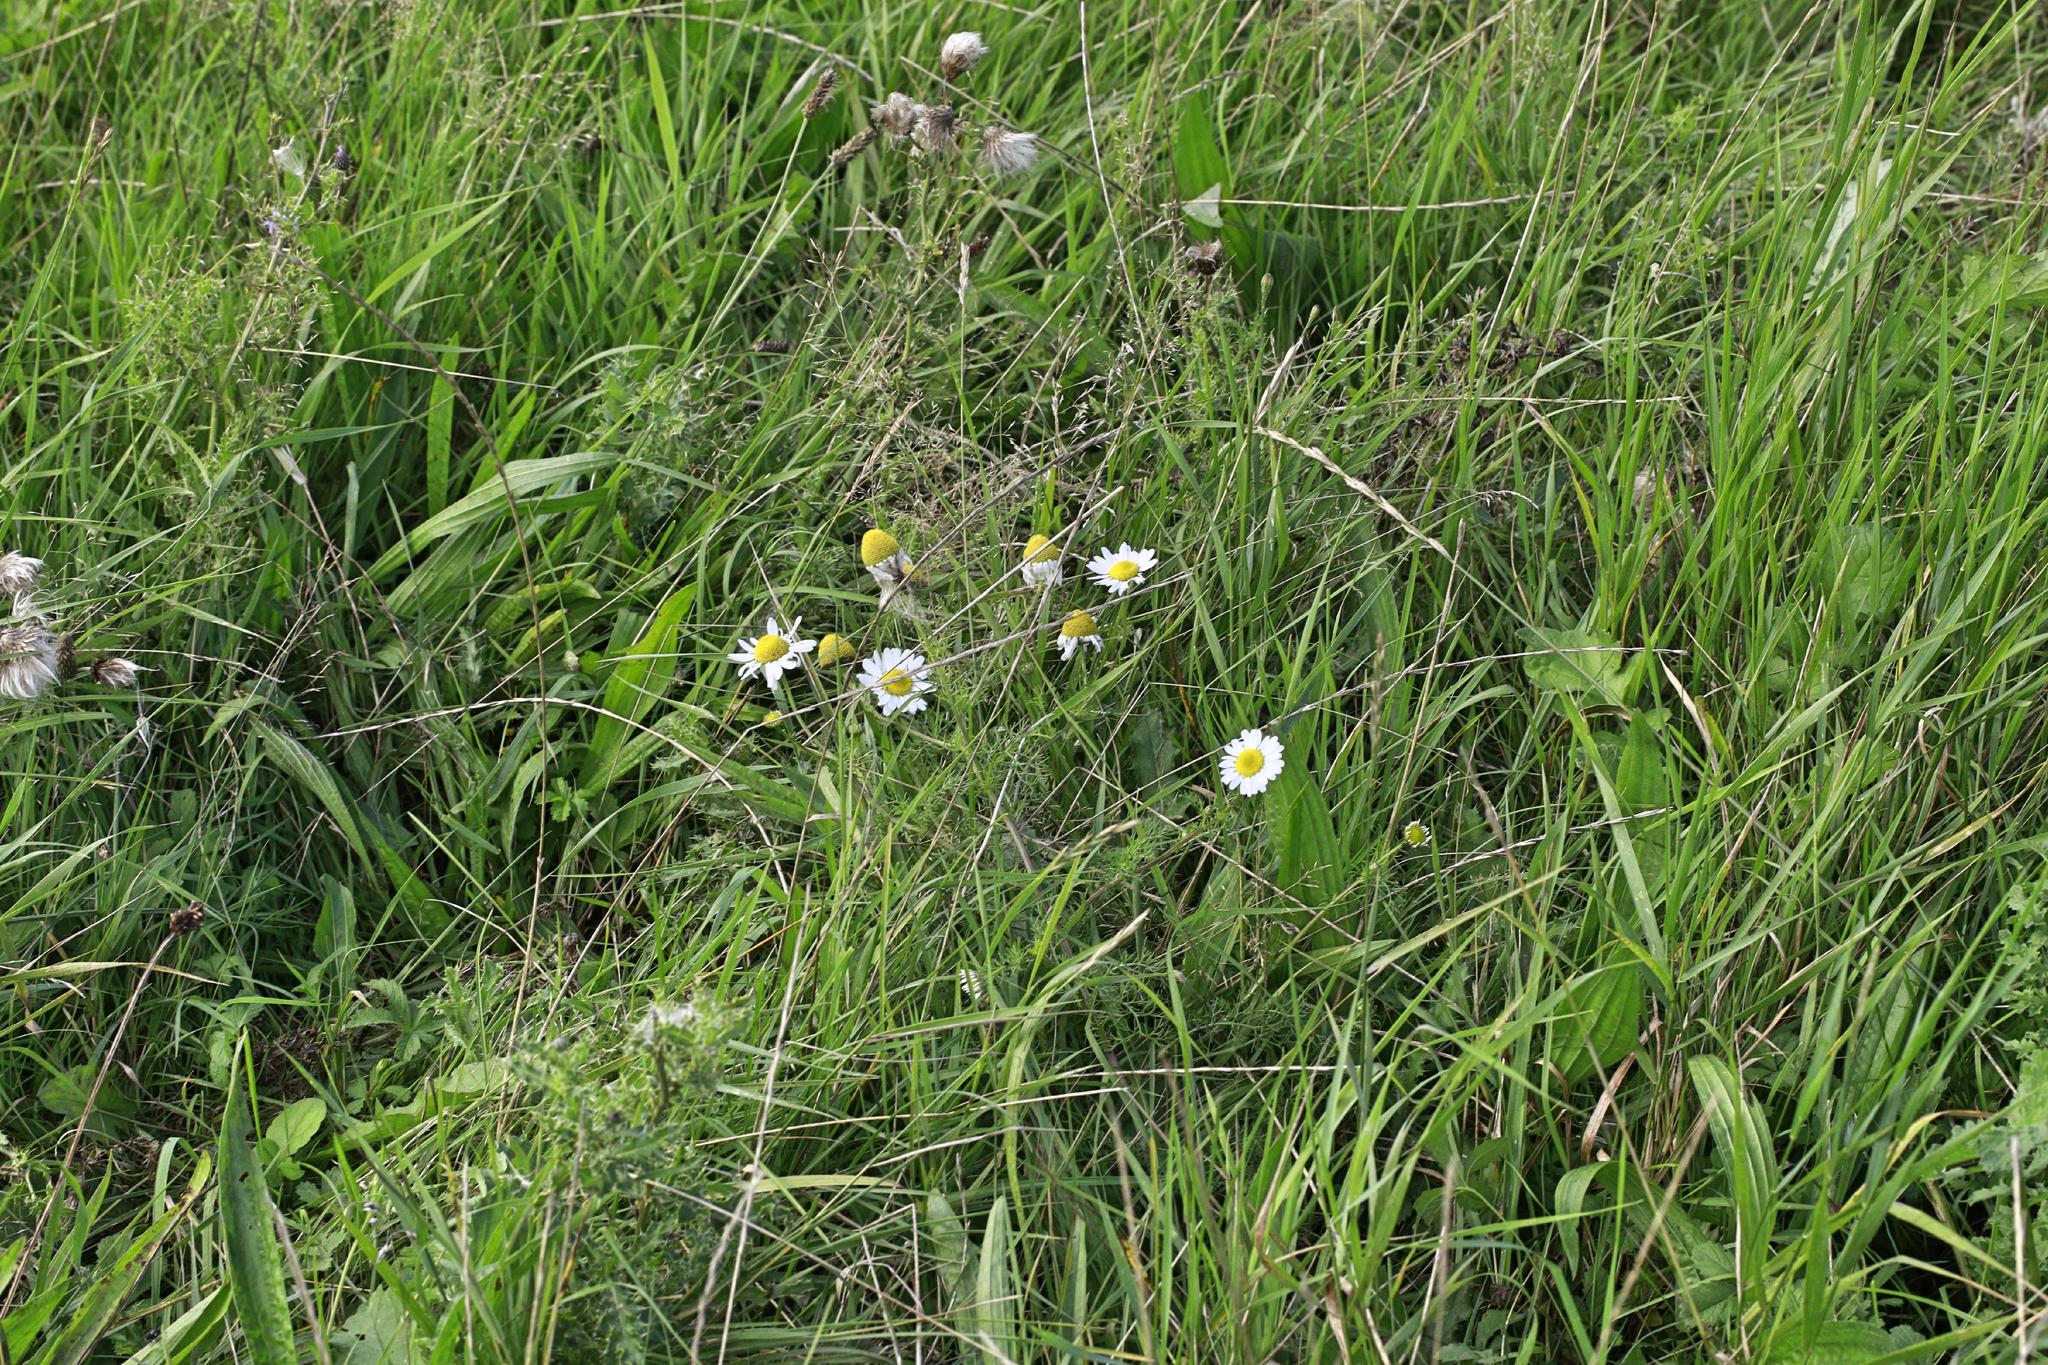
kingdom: Plantae
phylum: Tracheophyta
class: Magnoliopsida
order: Asterales
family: Asteraceae
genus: Tripleurospermum
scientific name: Tripleurospermum maritimum
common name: Sea mayweed
